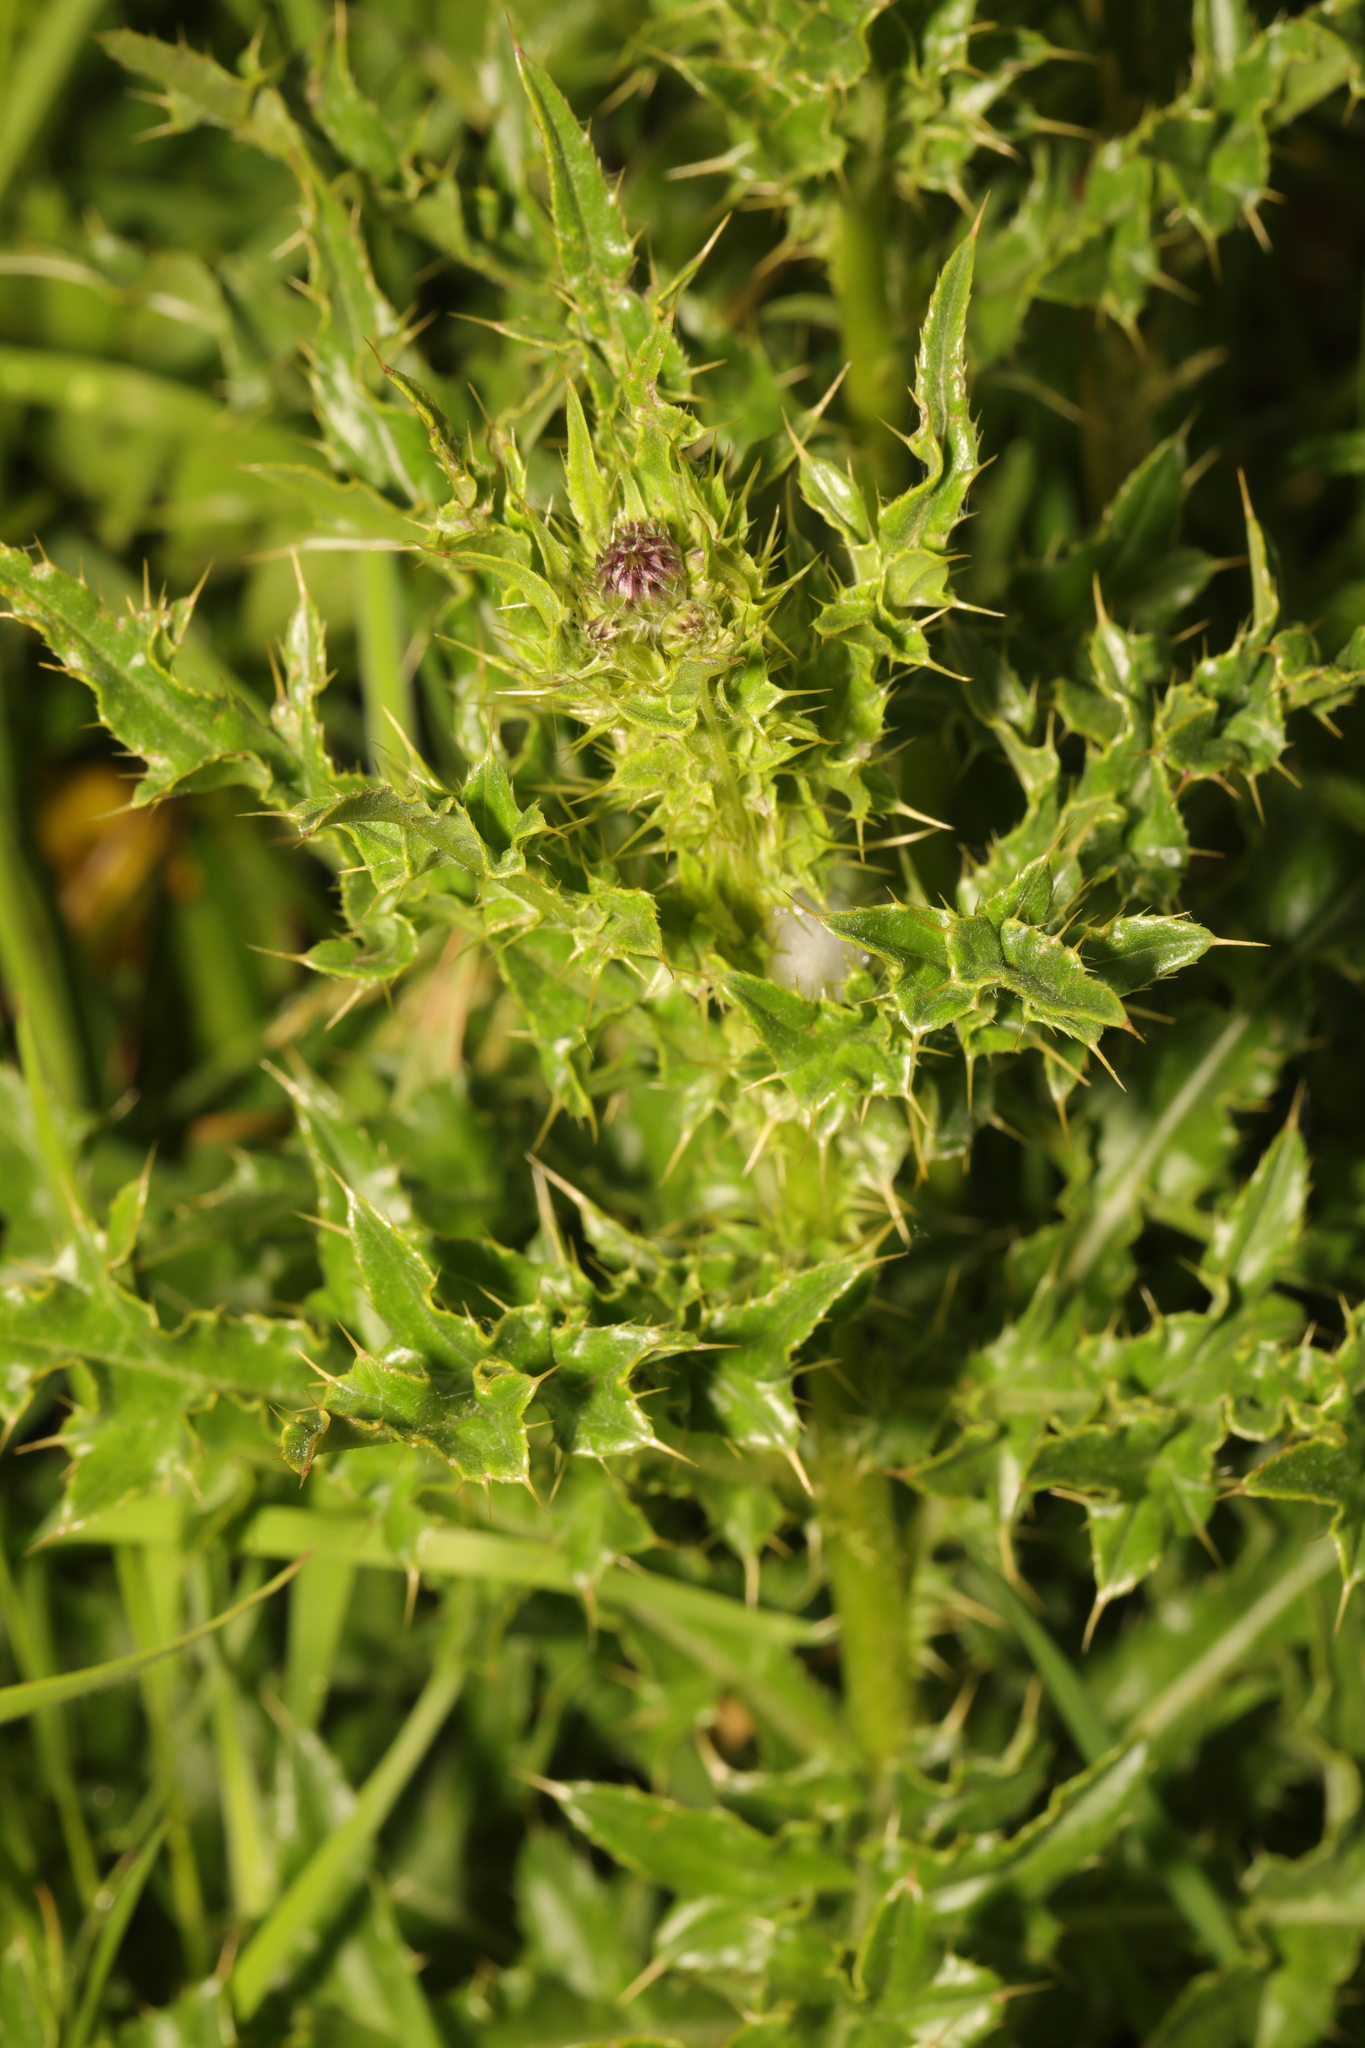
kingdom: Plantae
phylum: Tracheophyta
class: Magnoliopsida
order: Asterales
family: Asteraceae
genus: Cirsium
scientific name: Cirsium arvense
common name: Creeping thistle
